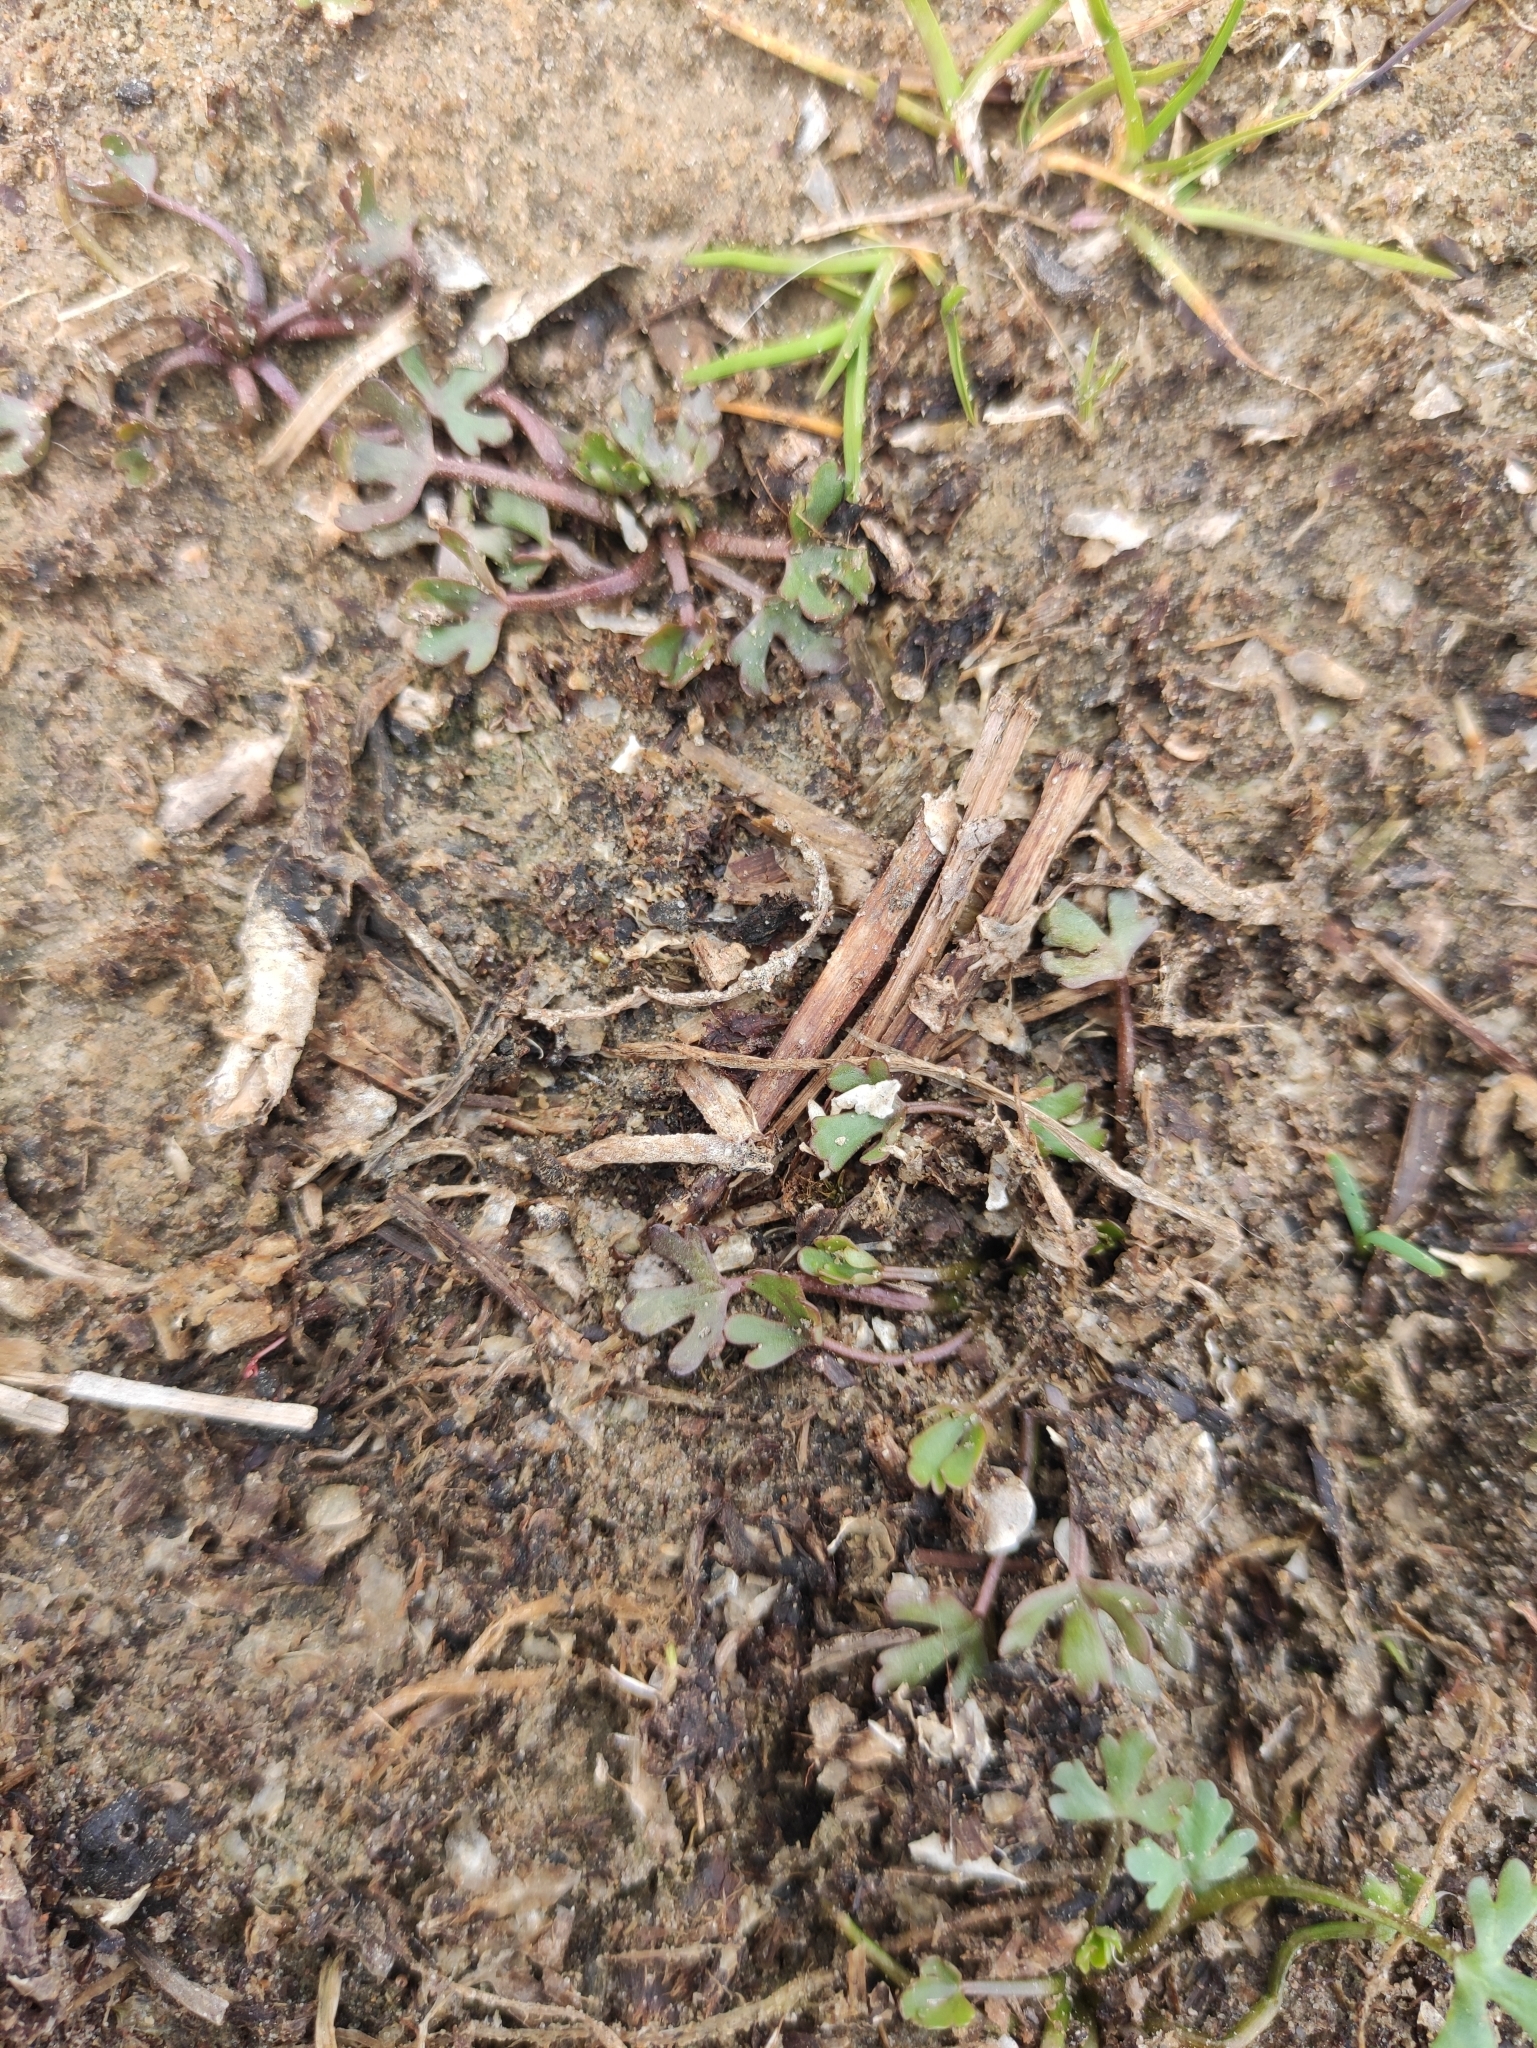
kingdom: Plantae
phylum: Tracheophyta
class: Magnoliopsida
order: Ranunculales
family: Ranunculaceae
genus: Ranunculus
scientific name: Ranunculus gmelinii
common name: Gmelin's buttercup
